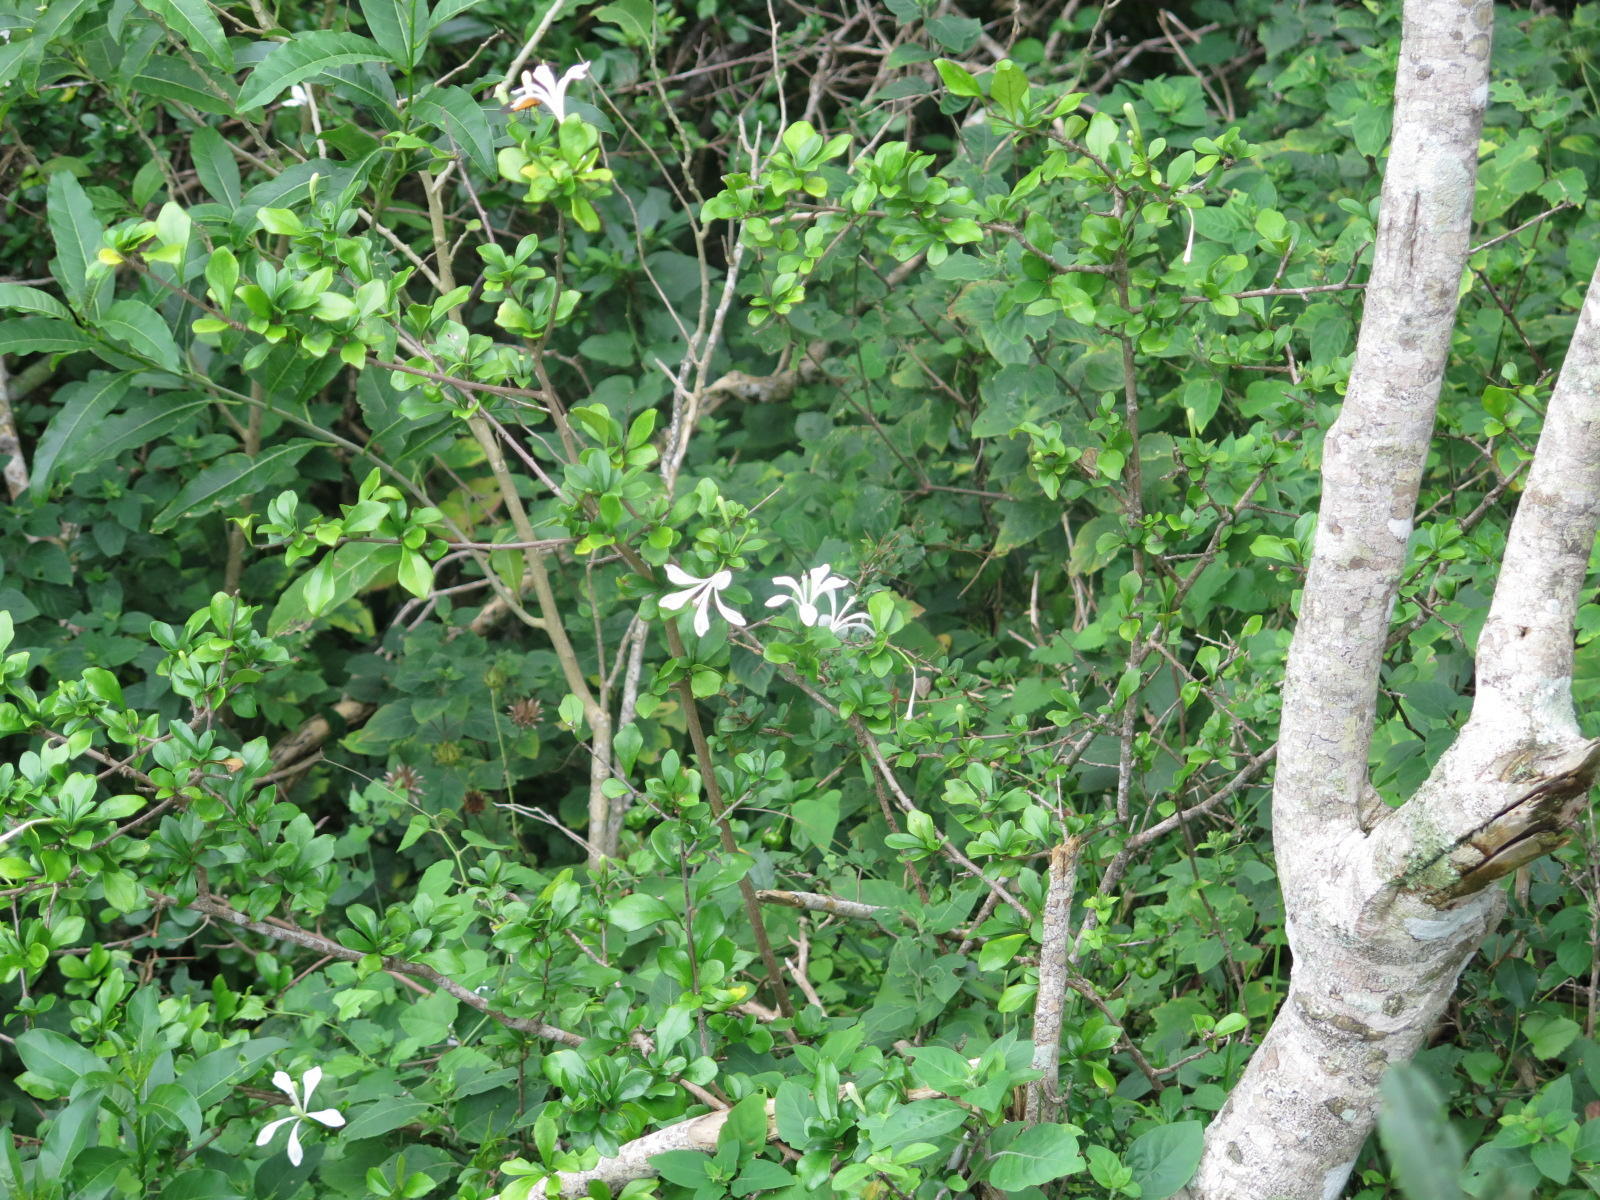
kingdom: Plantae
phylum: Tracheophyta
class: Magnoliopsida
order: Sapindales
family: Meliaceae
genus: Turraea
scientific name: Turraea obtusifolia
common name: Small honeysuckle tree
